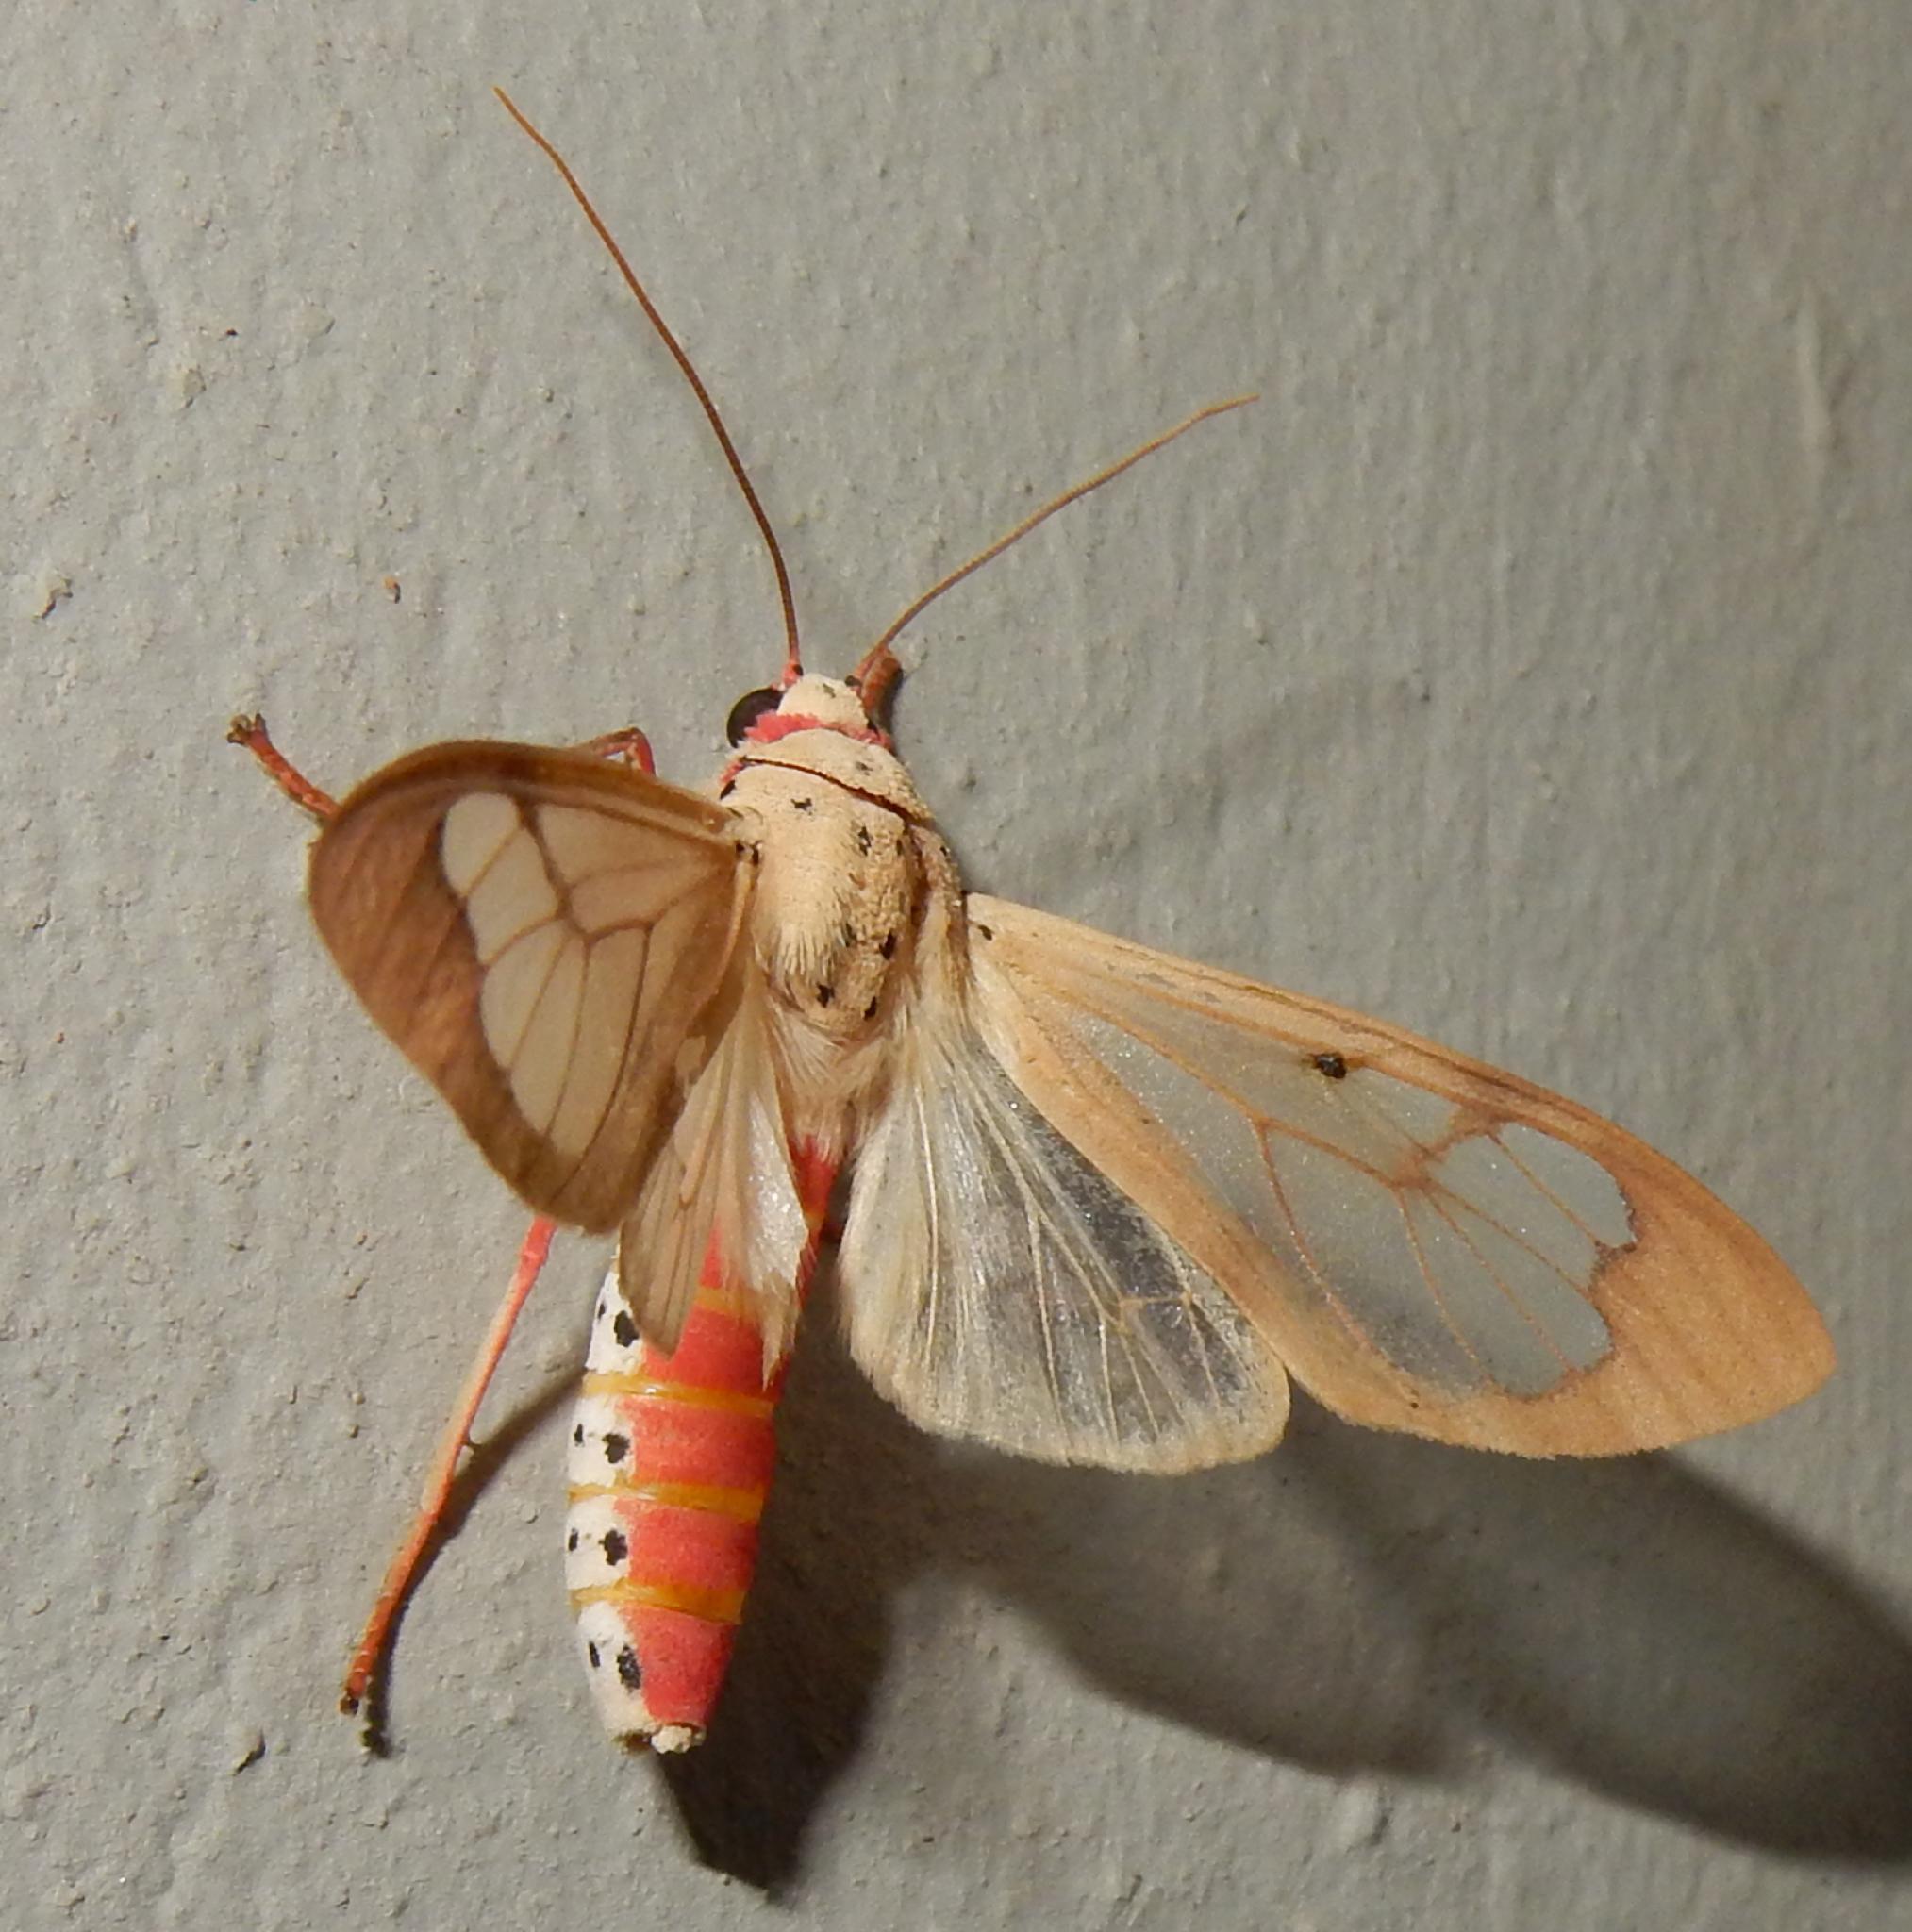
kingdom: Animalia
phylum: Arthropoda
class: Insecta
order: Lepidoptera
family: Erebidae
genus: Amerila
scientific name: Amerila vitrea
